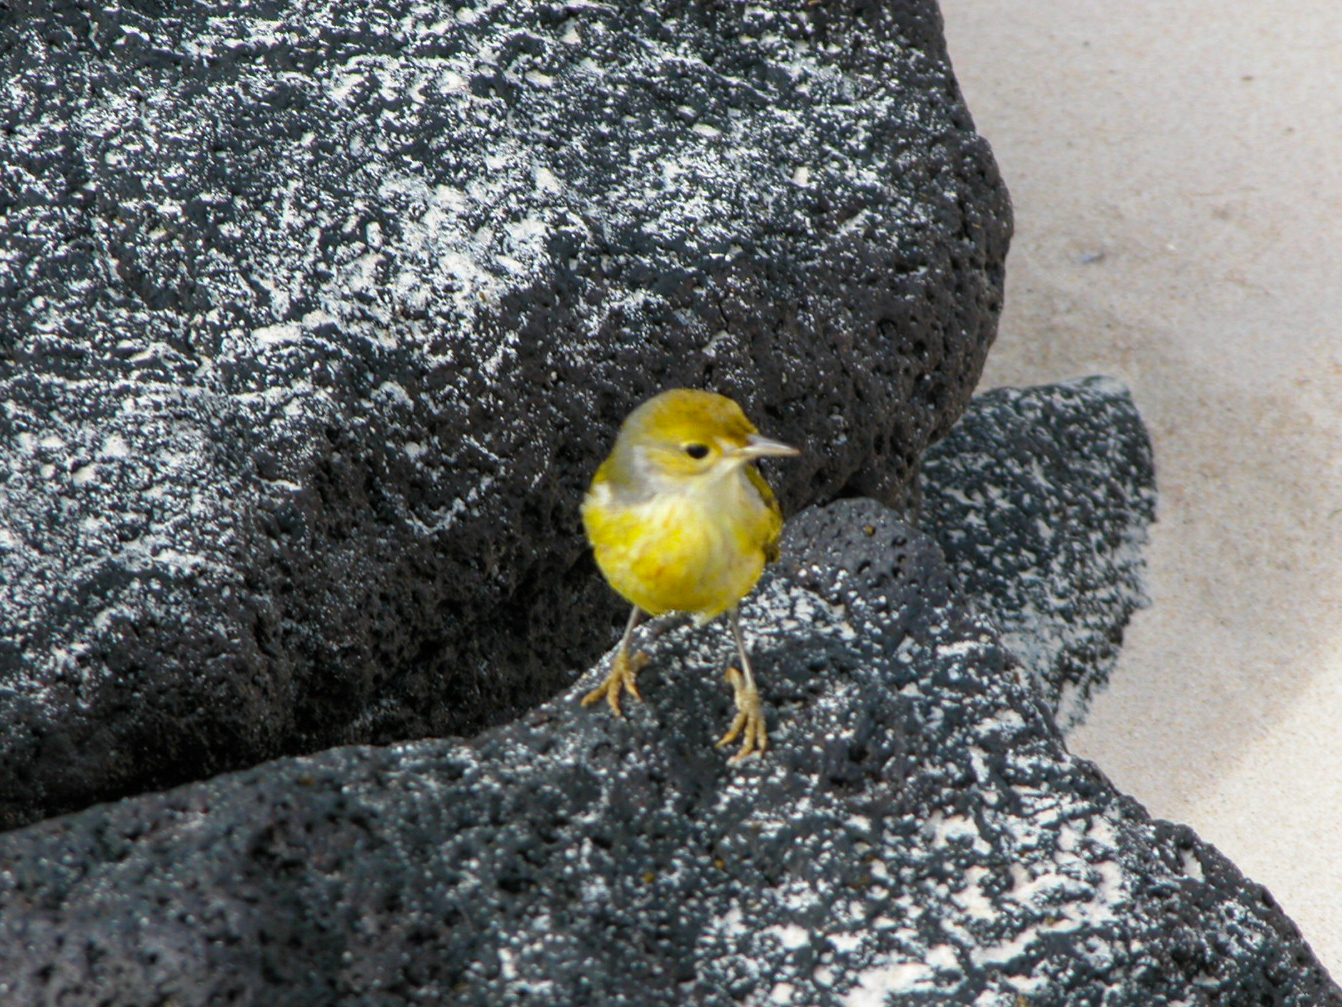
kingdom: Animalia
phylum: Chordata
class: Aves
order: Passeriformes
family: Parulidae
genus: Setophaga
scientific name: Setophaga petechia
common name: Yellow warbler
